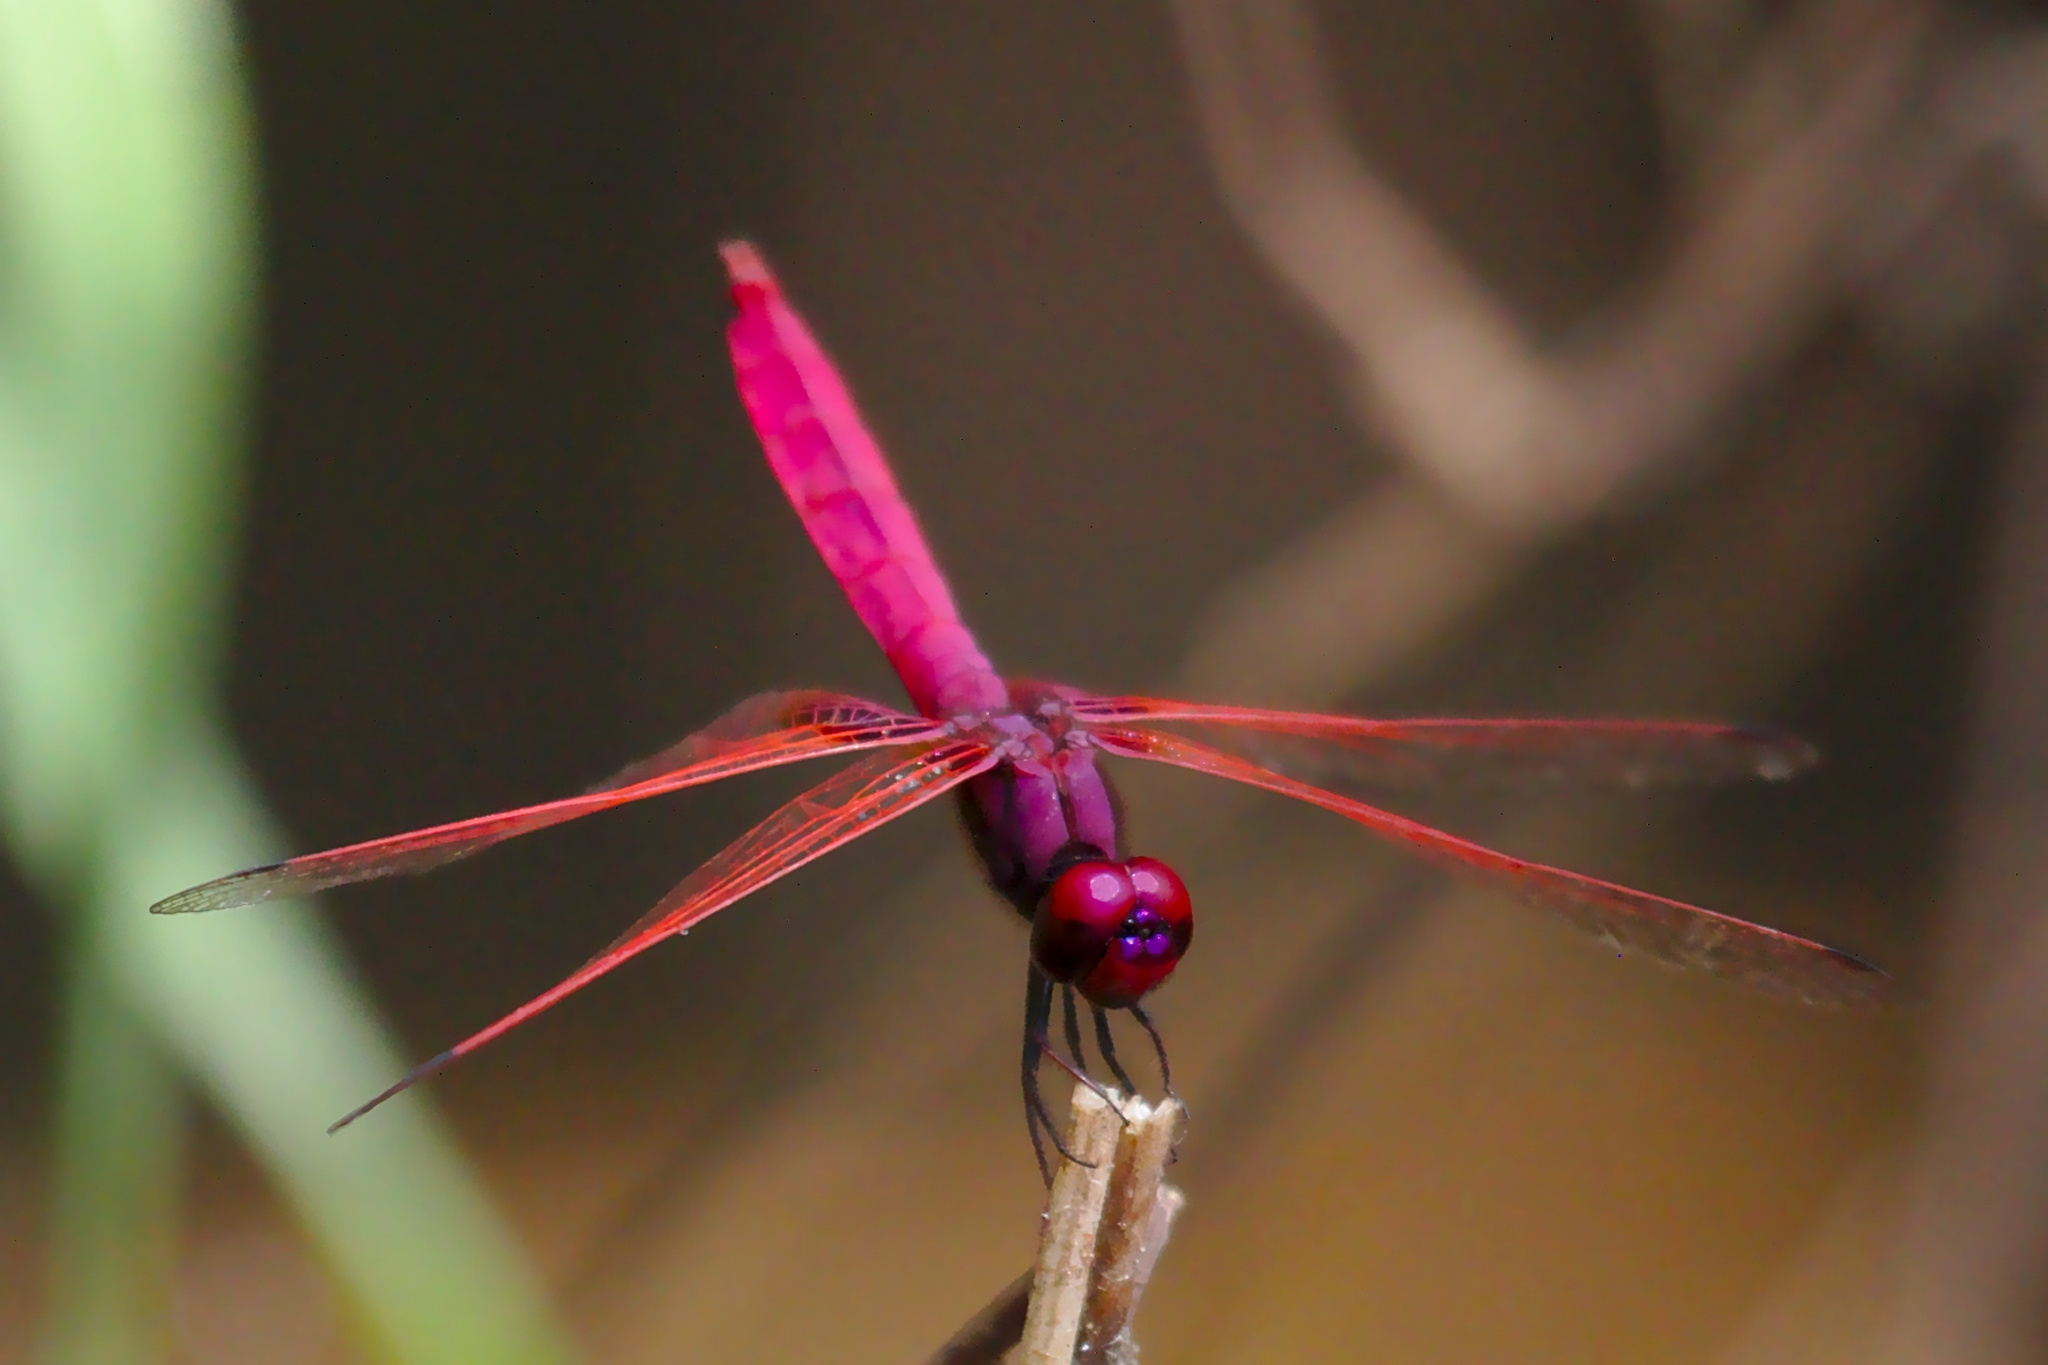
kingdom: Animalia
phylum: Arthropoda
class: Insecta
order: Odonata
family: Libellulidae
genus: Trithemis
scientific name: Trithemis aurora
